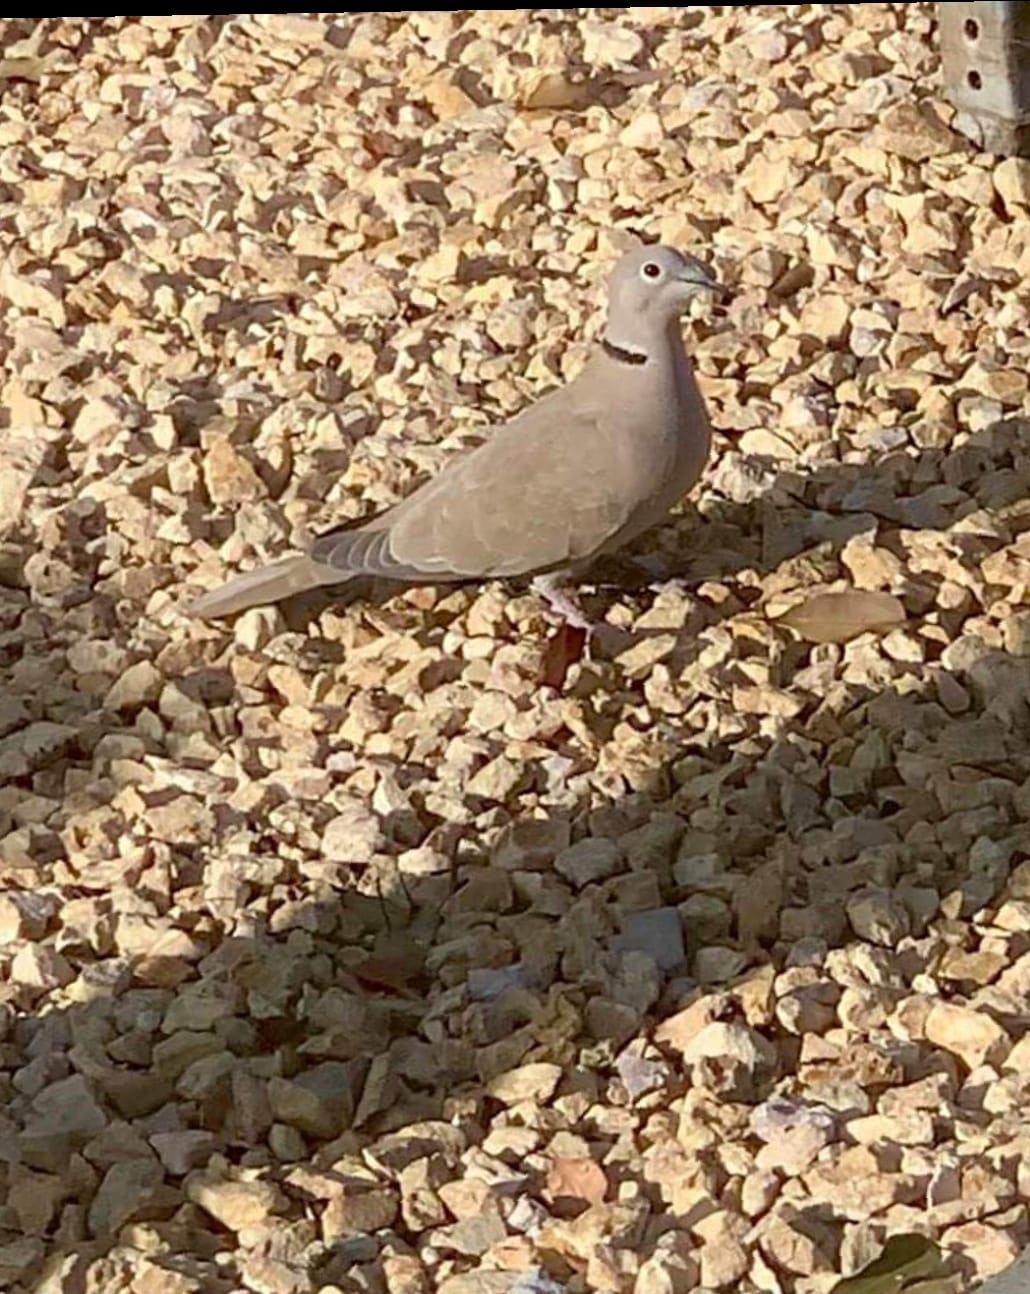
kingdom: Animalia
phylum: Chordata
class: Aves
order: Columbiformes
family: Columbidae
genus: Streptopelia
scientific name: Streptopelia decaocto
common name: Eurasian collared dove
